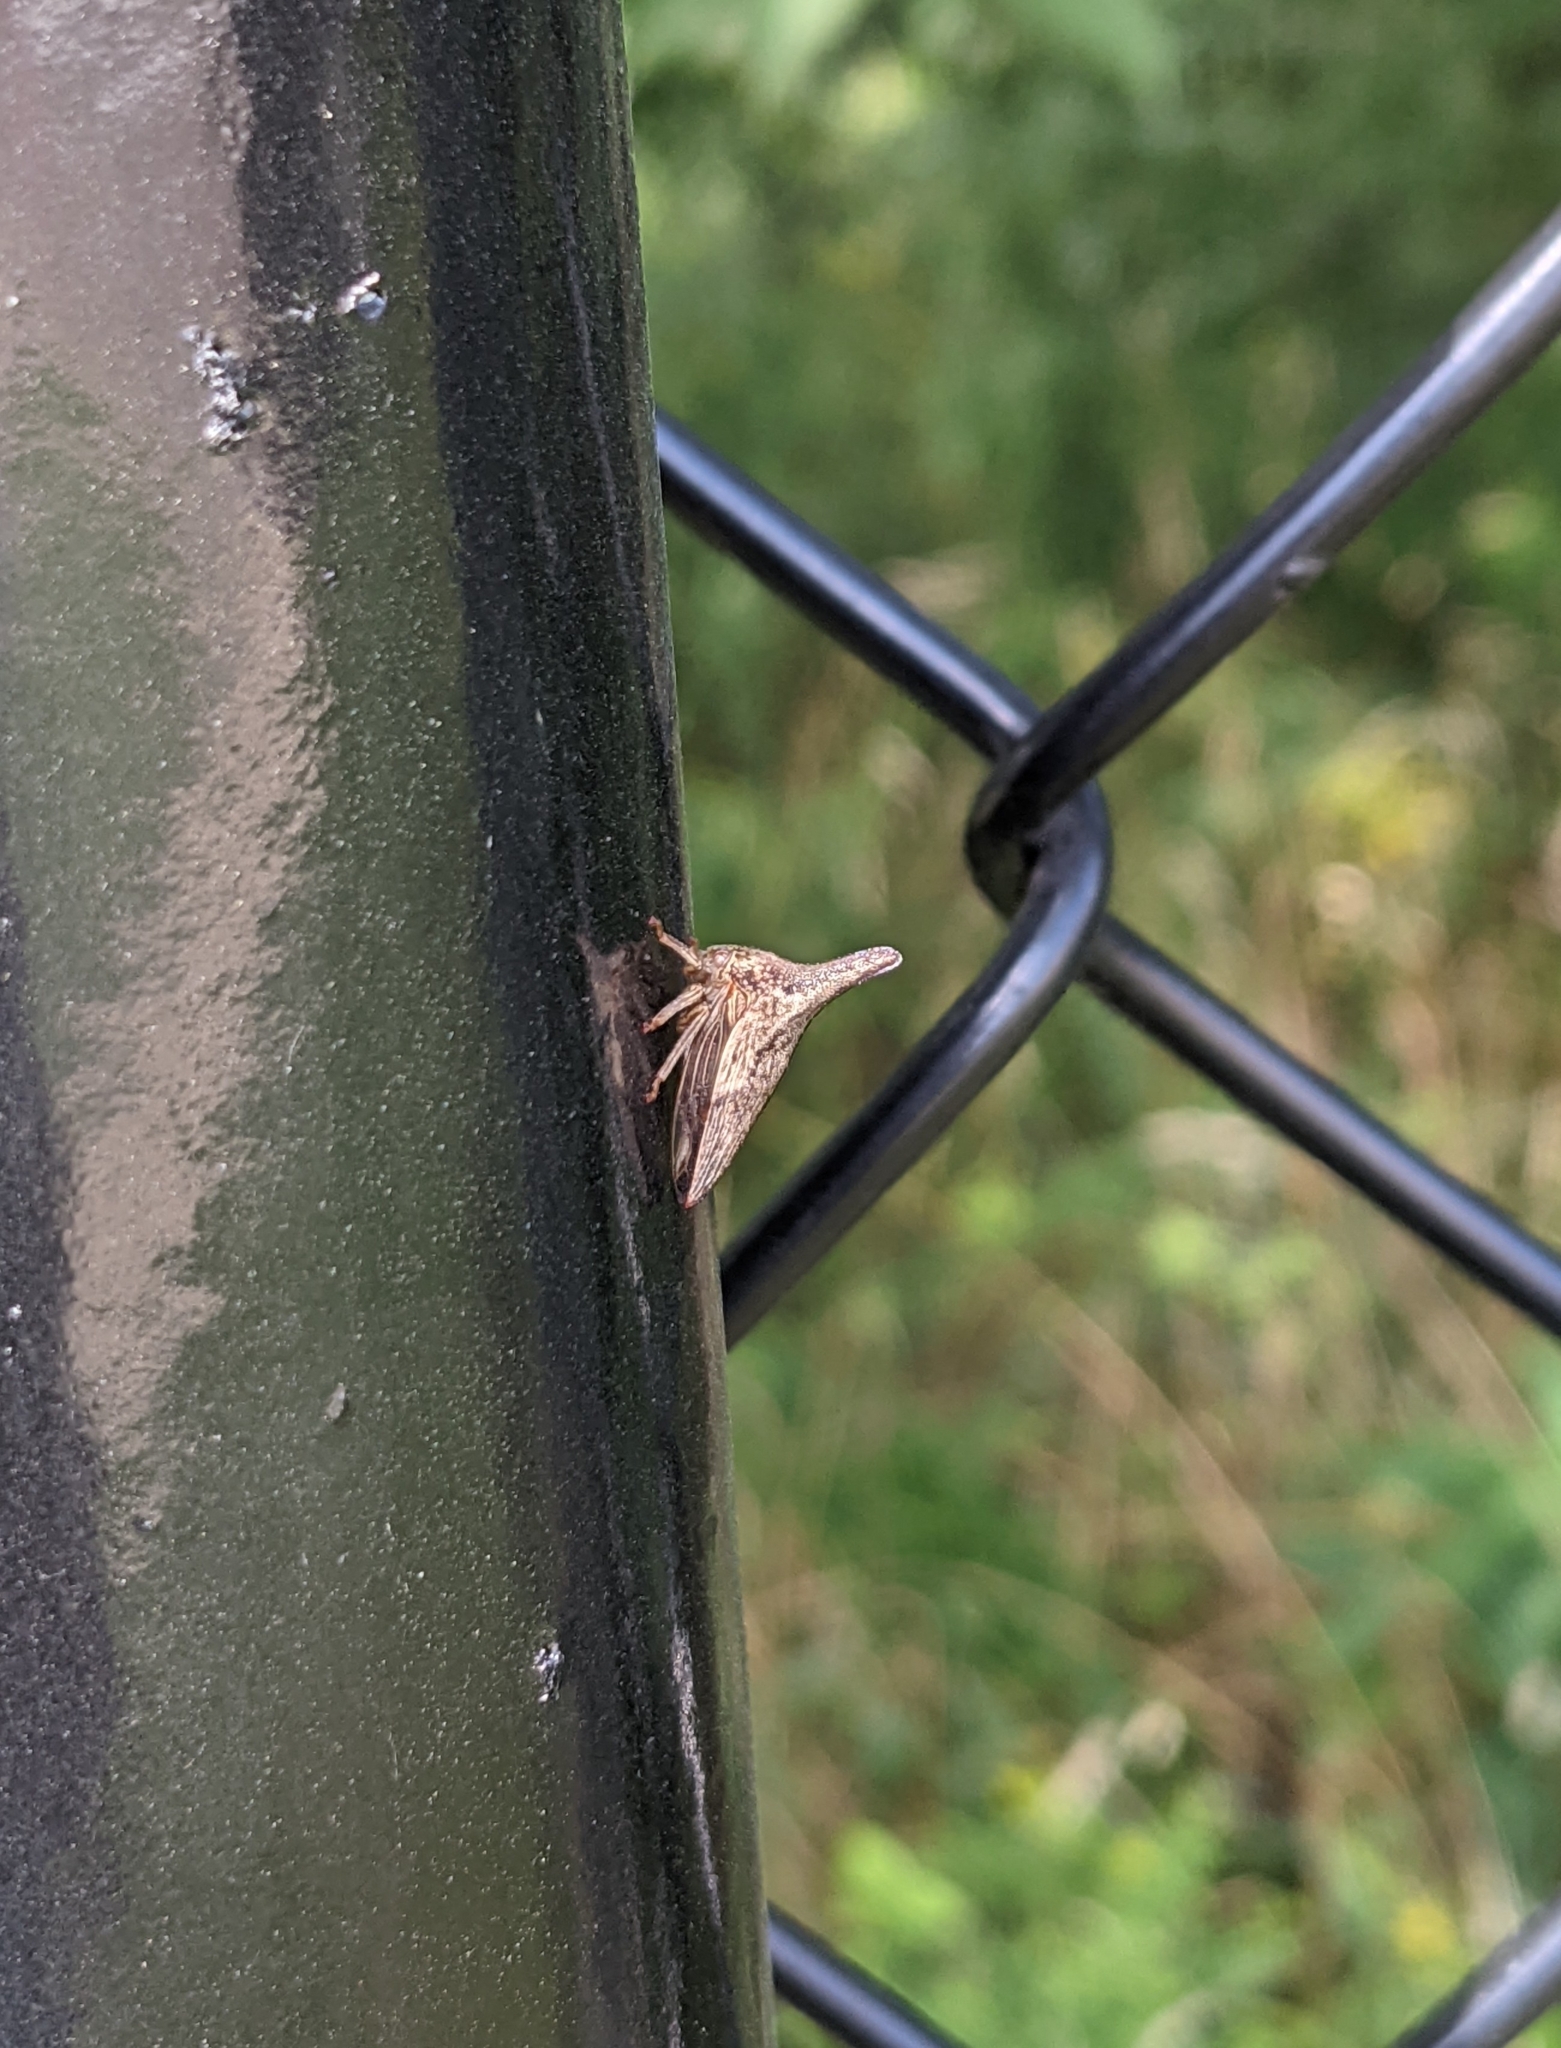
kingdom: Animalia
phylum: Arthropoda
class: Insecta
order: Hemiptera
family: Membracidae
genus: Thelia
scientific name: Thelia bimaculata
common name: Locust treehopper
